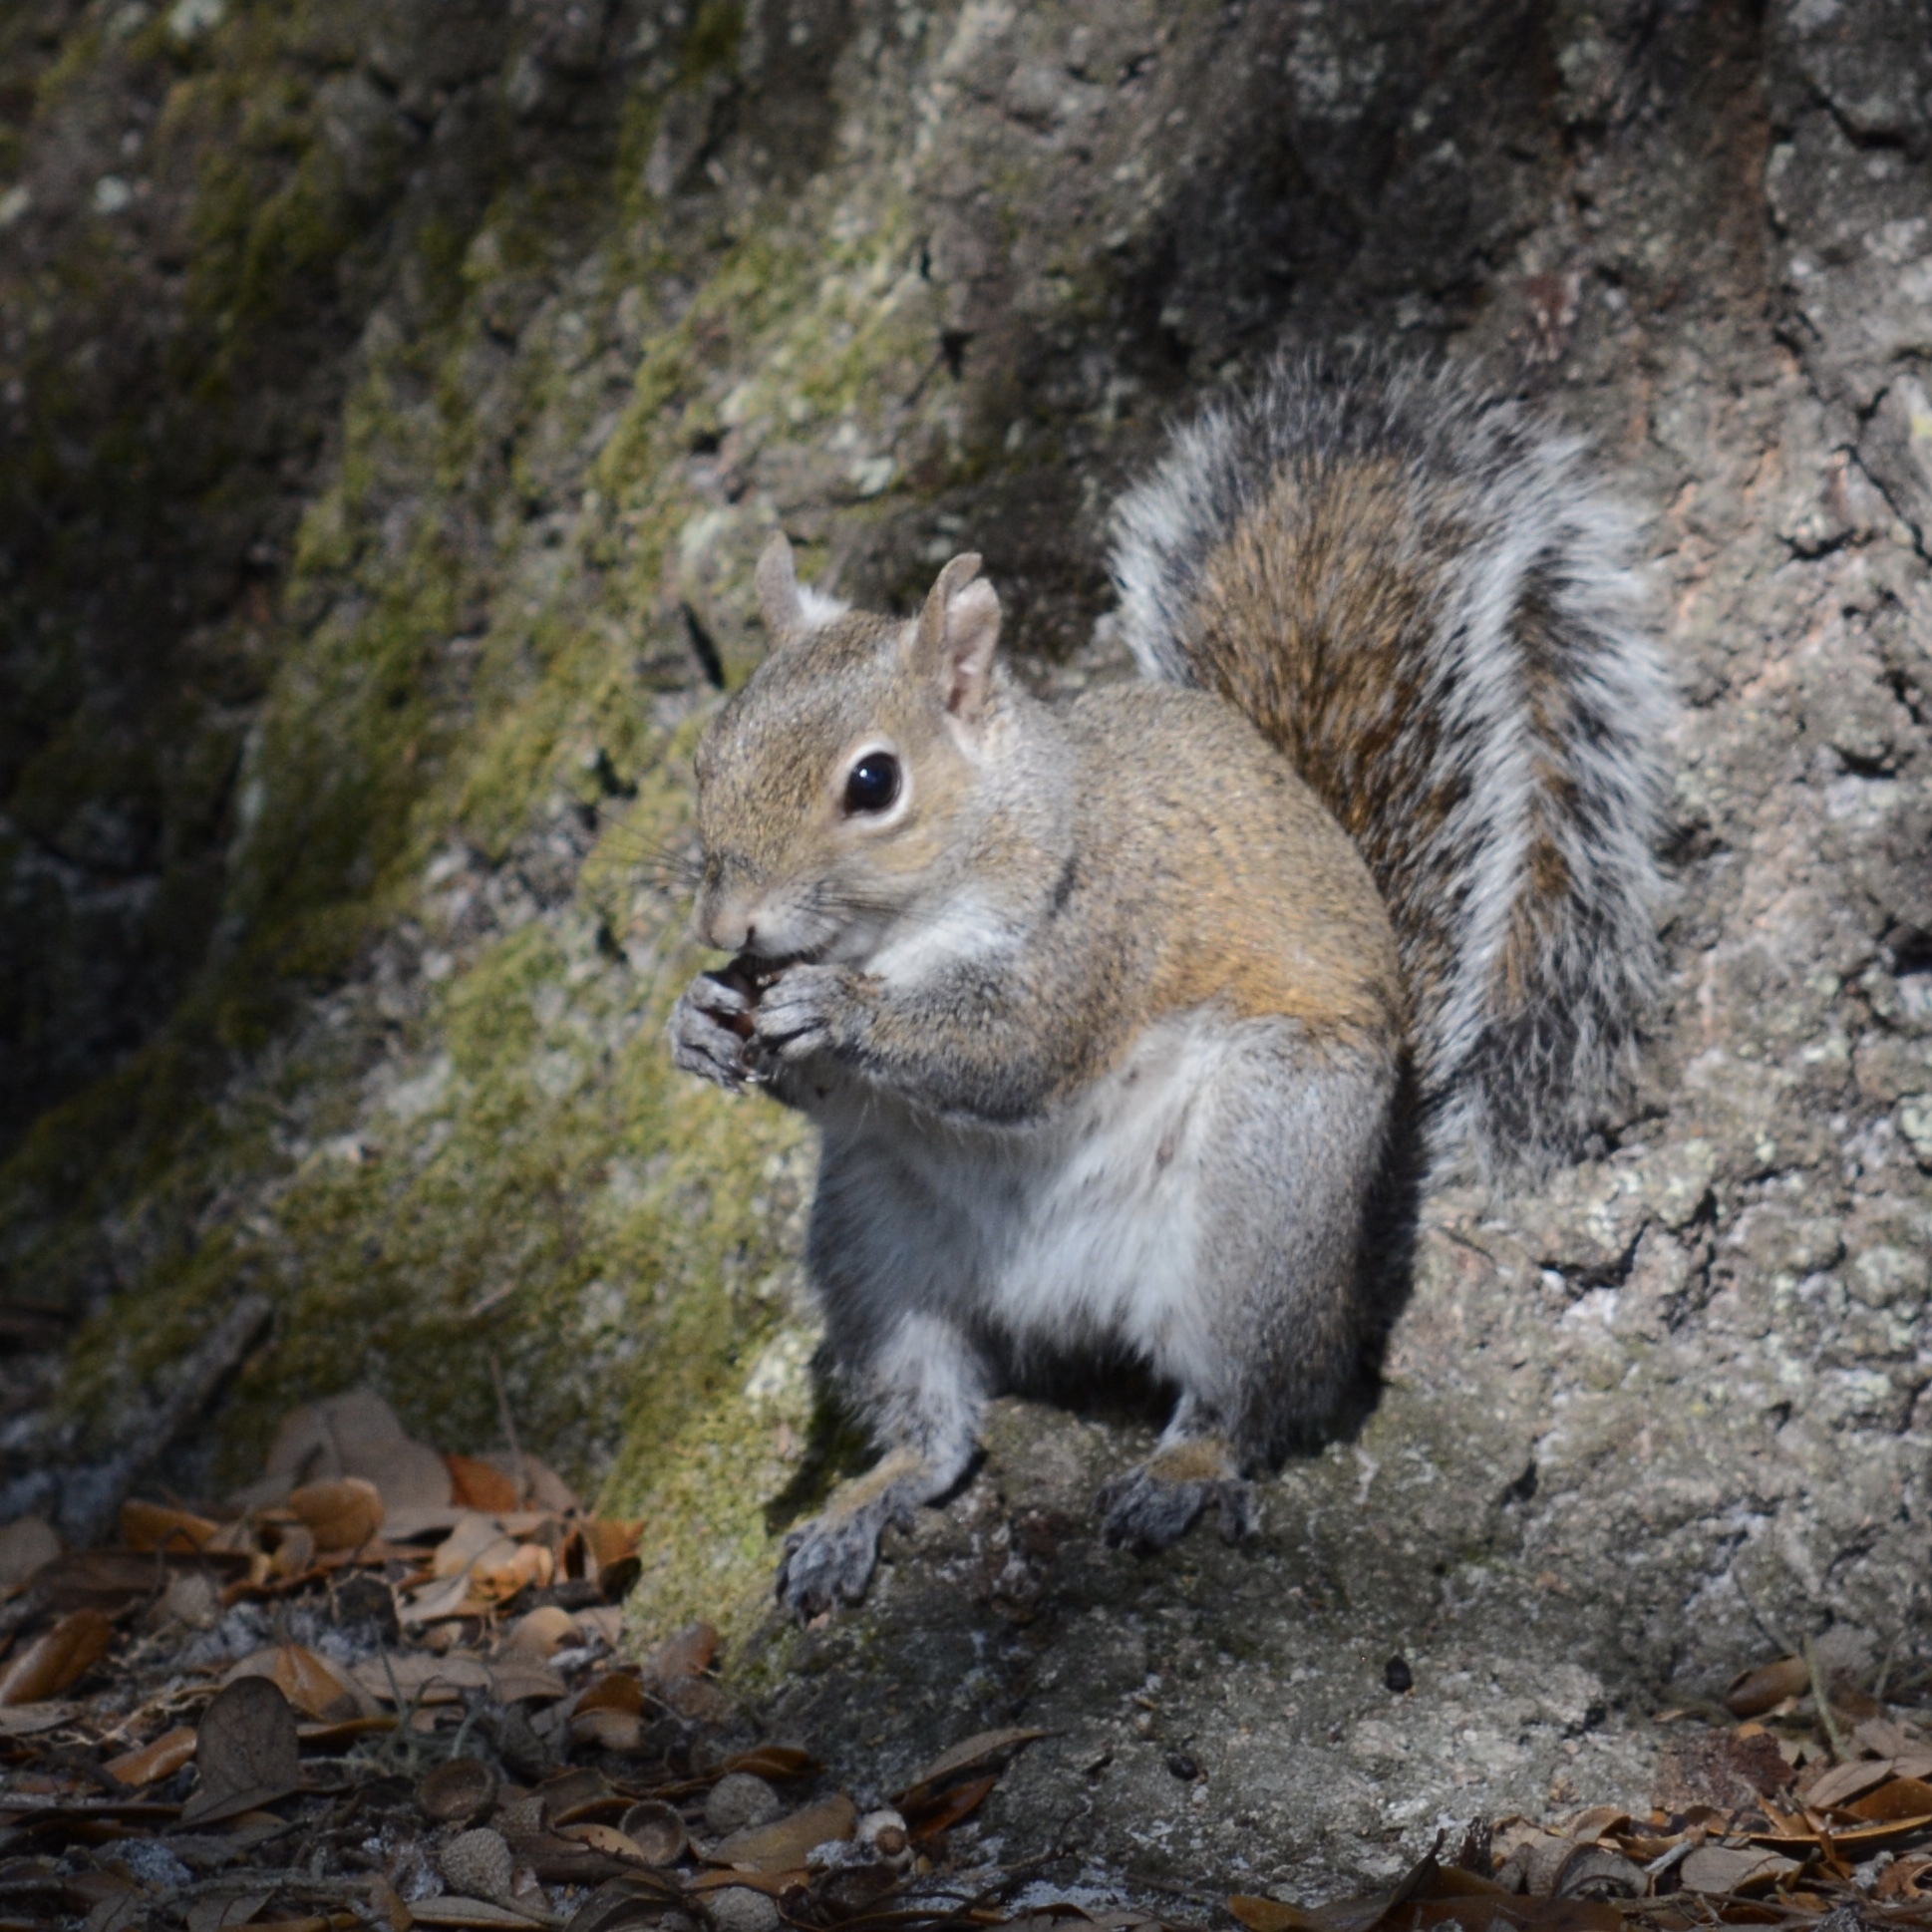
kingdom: Animalia
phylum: Chordata
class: Mammalia
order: Rodentia
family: Sciuridae
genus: Sciurus
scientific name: Sciurus carolinensis
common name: Eastern gray squirrel
